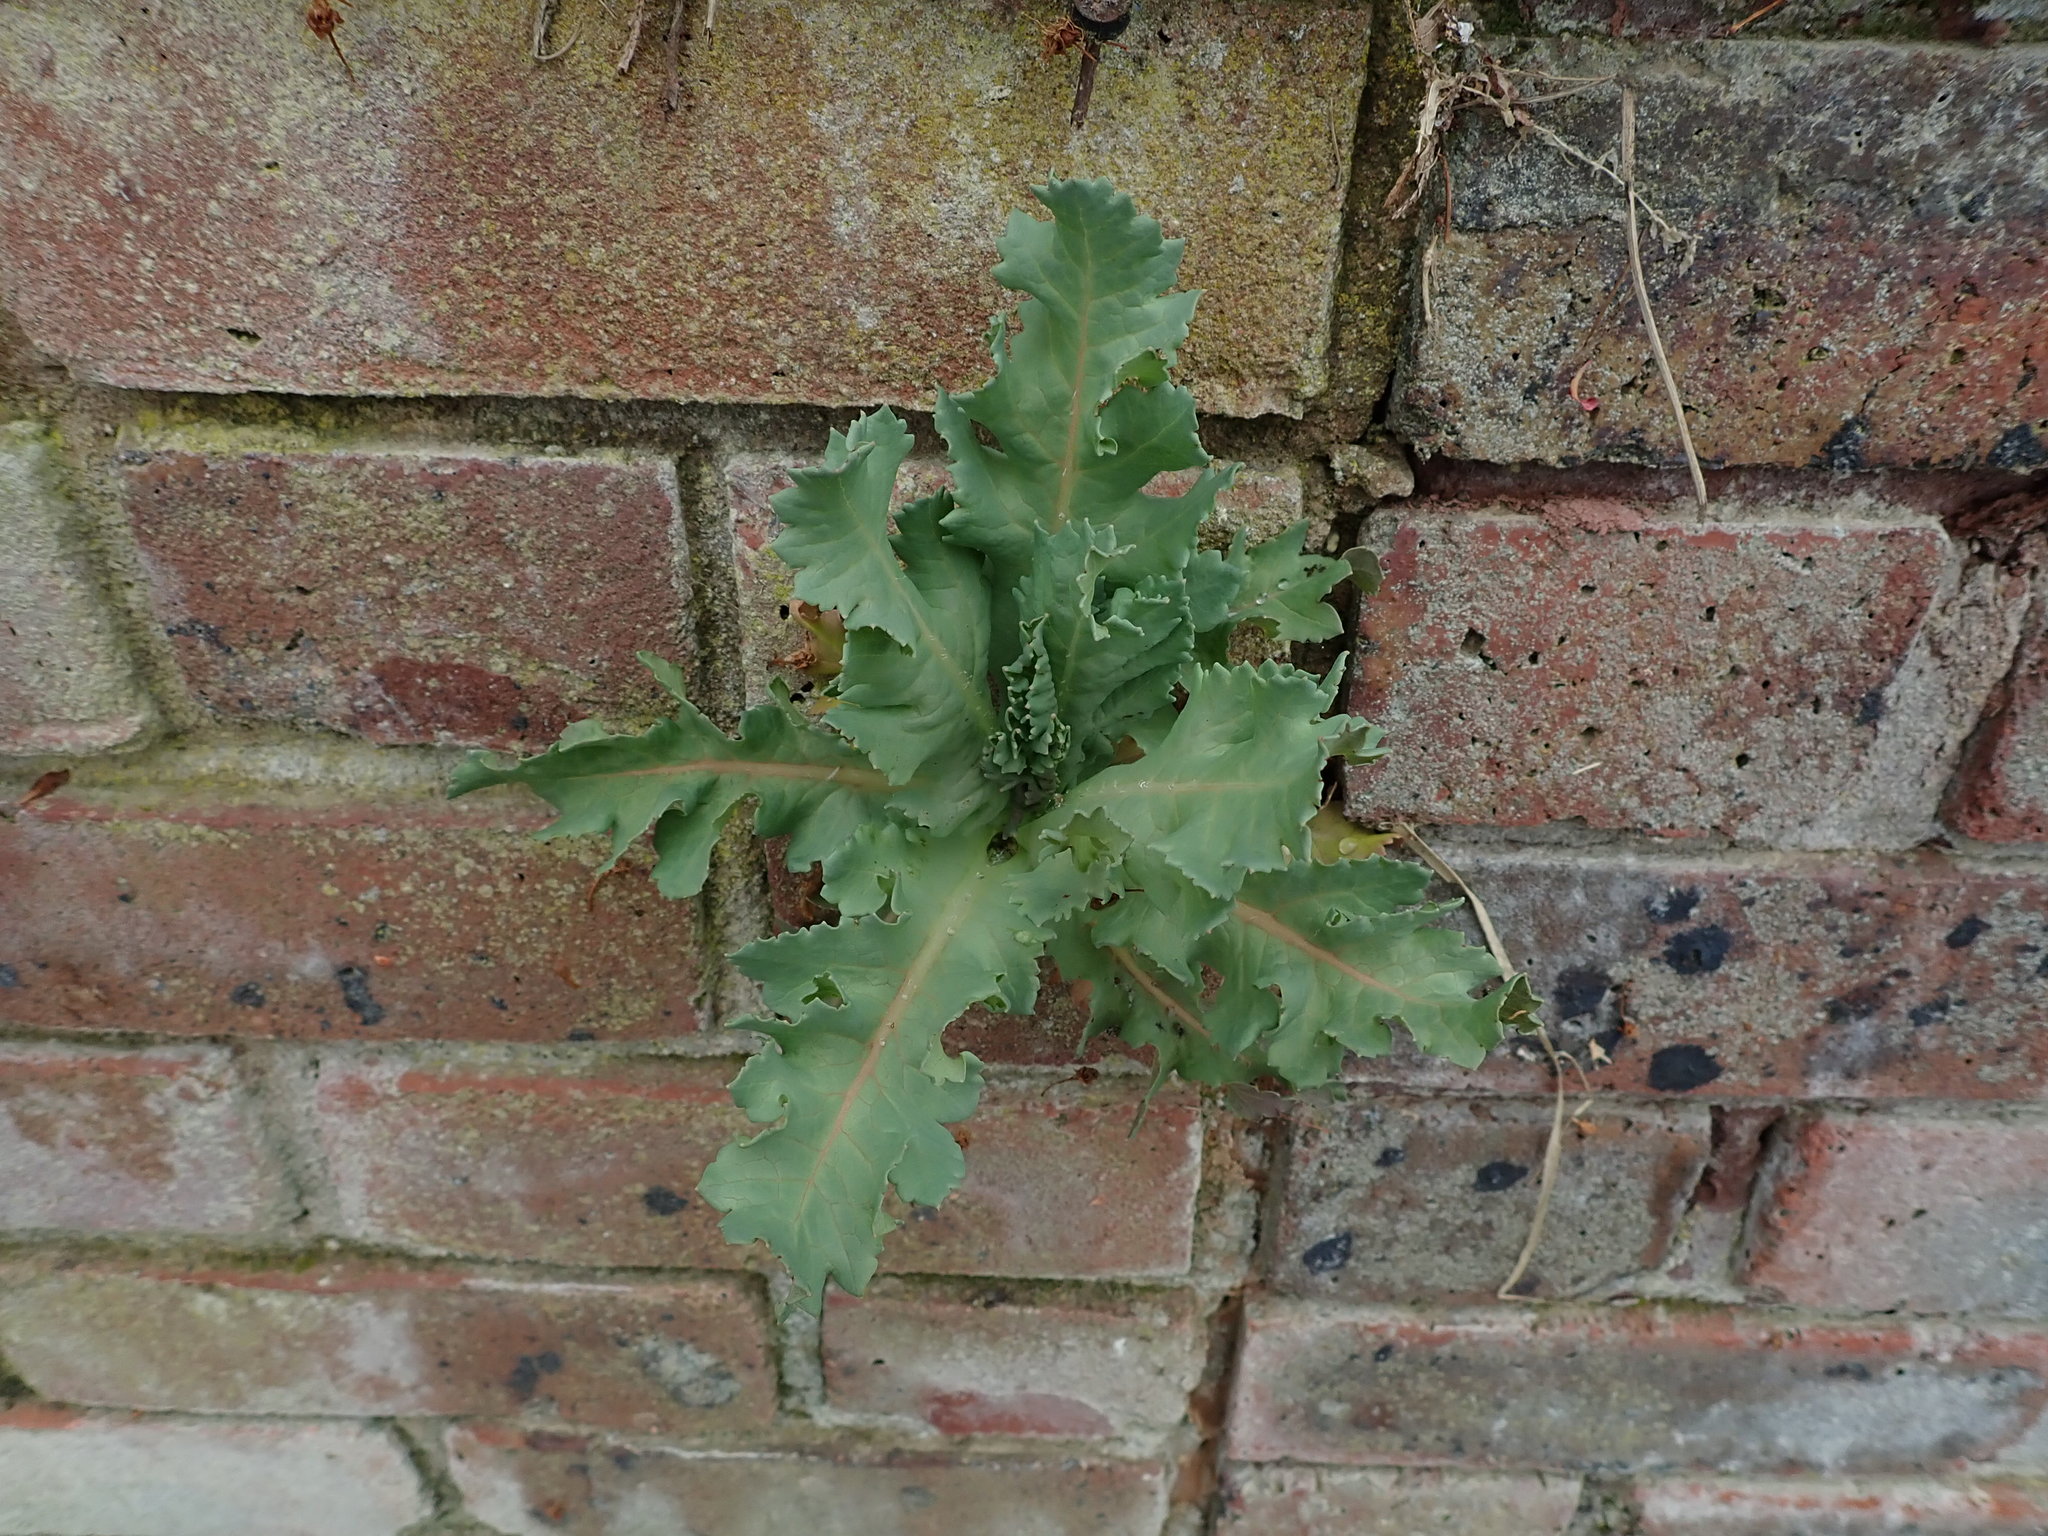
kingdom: Plantae
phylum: Tracheophyta
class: Magnoliopsida
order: Ranunculales
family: Papaveraceae
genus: Papaver
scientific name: Papaver somniferum
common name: Opium poppy
